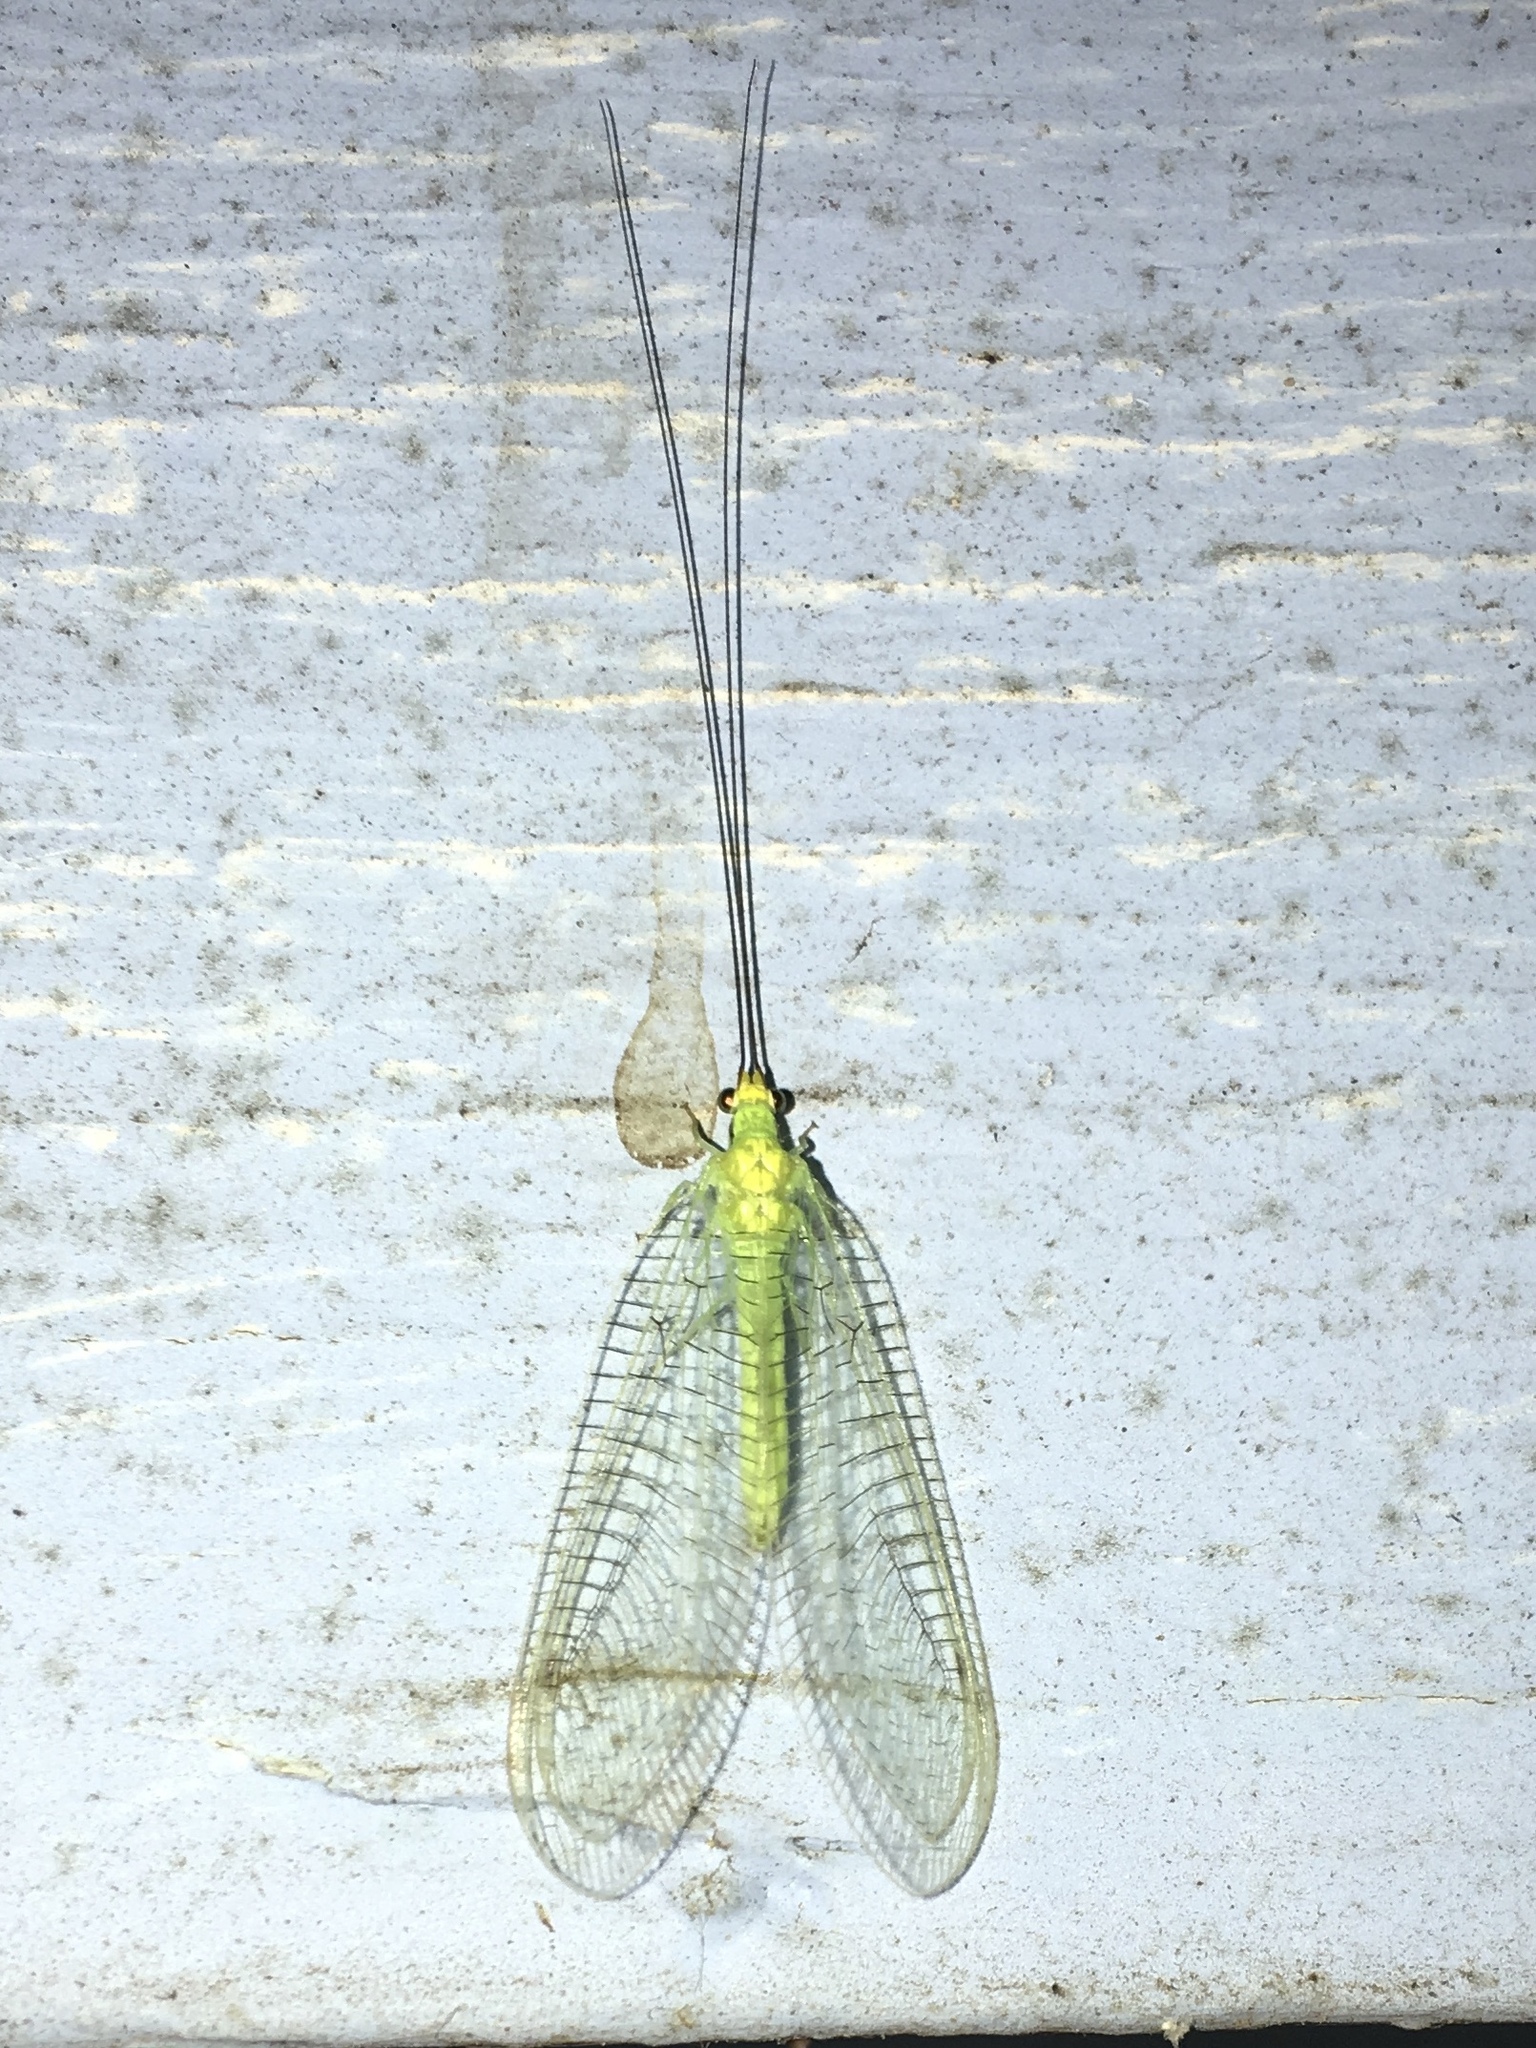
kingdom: Animalia
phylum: Arthropoda
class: Insecta
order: Neuroptera
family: Chrysopidae
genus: Leucochrysa
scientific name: Leucochrysa pavida
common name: Lichen-carrying green lacewing
